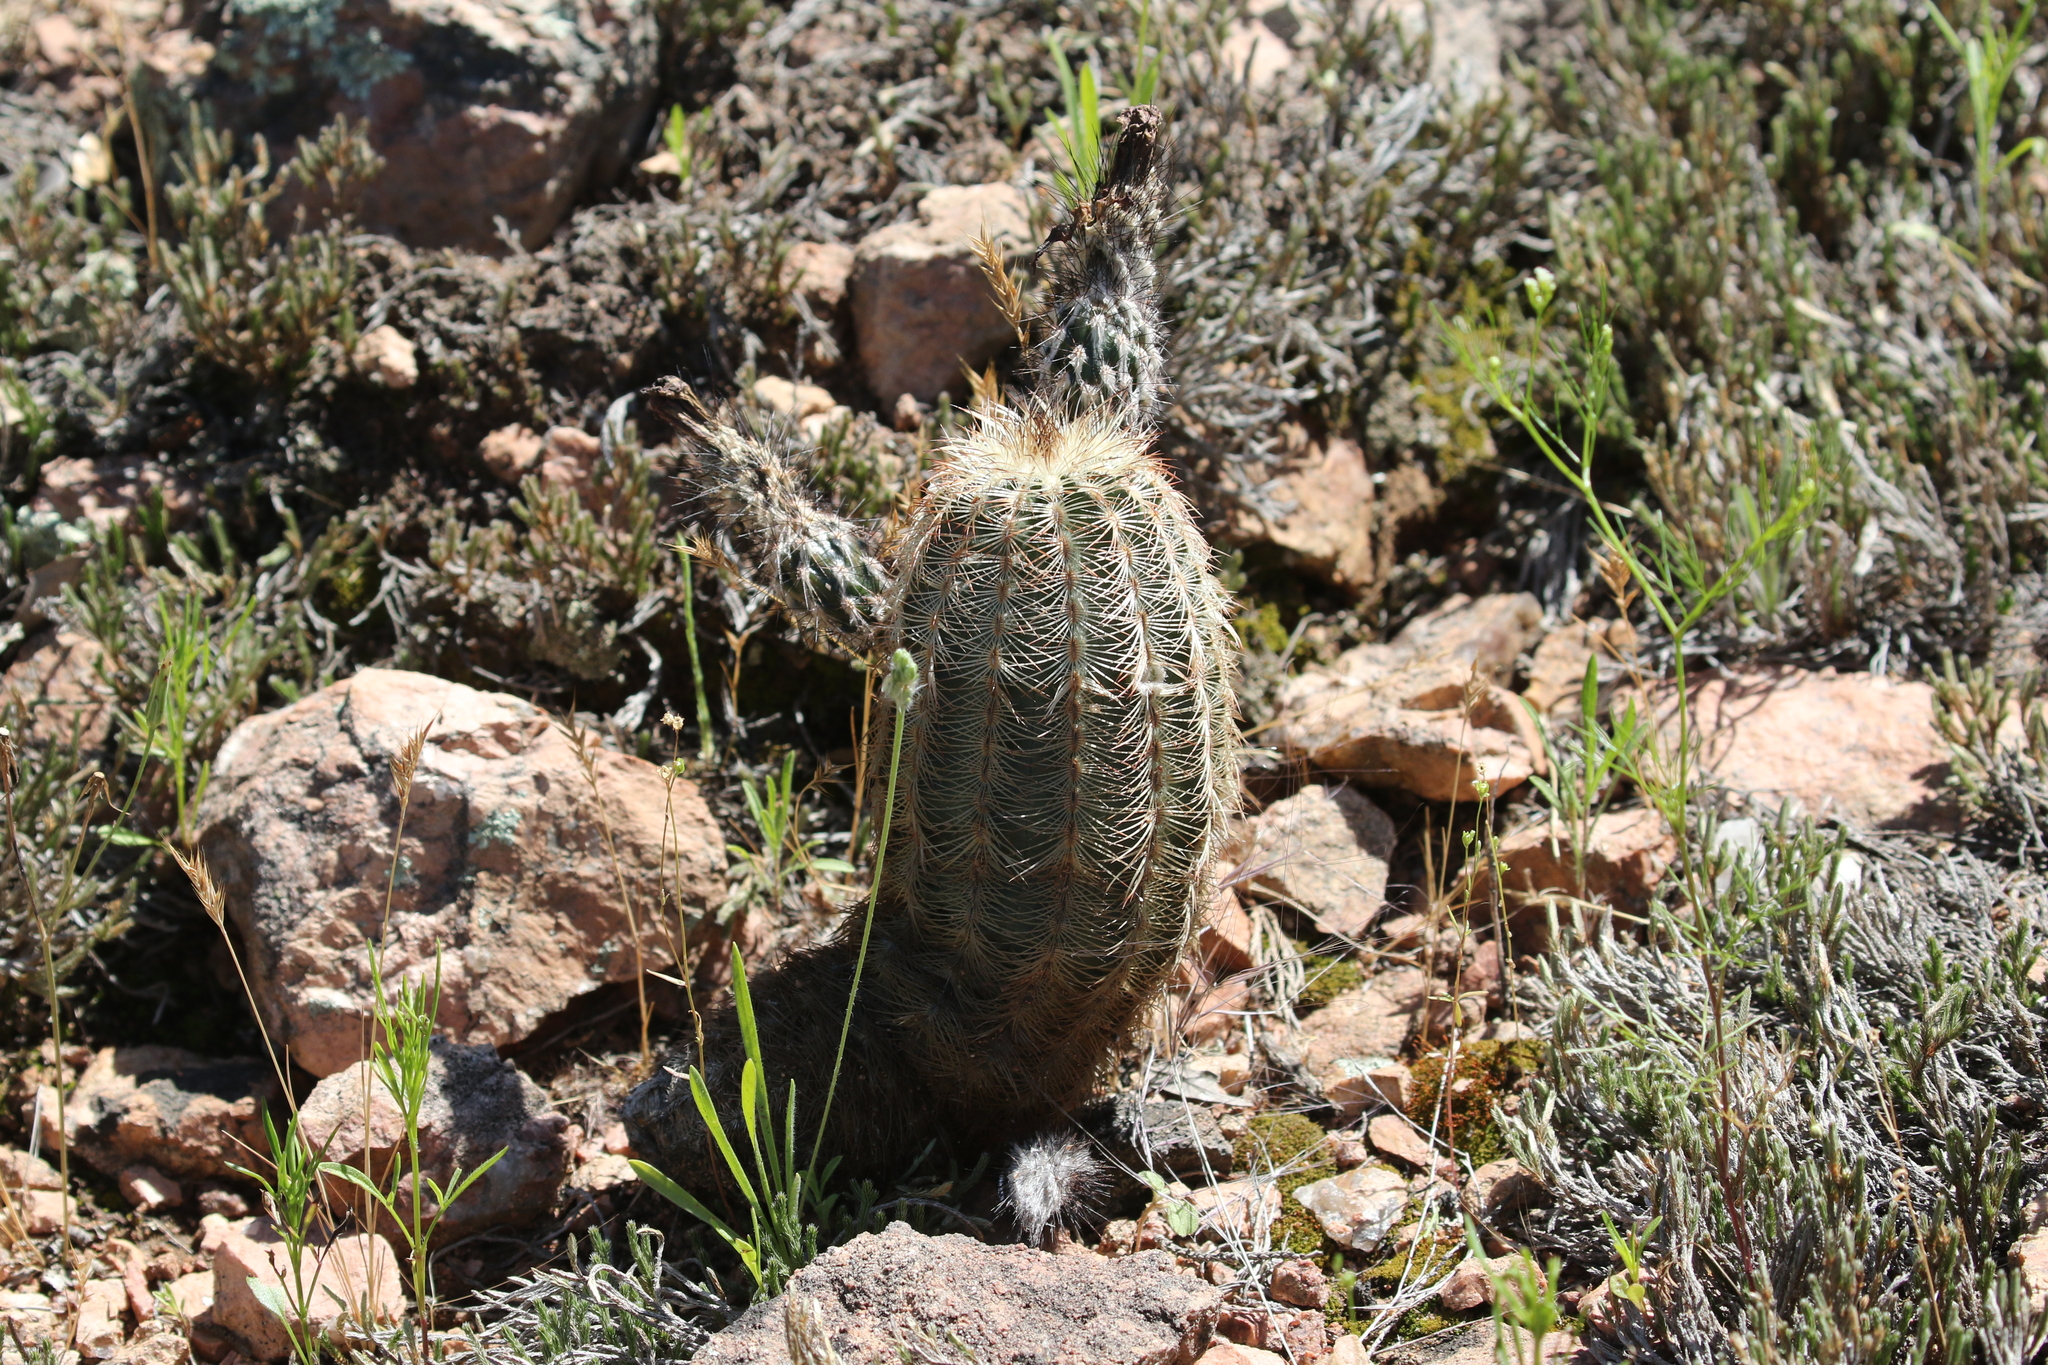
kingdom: Plantae
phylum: Tracheophyta
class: Magnoliopsida
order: Caryophyllales
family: Cactaceae
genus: Echinocereus
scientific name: Echinocereus reichenbachii
